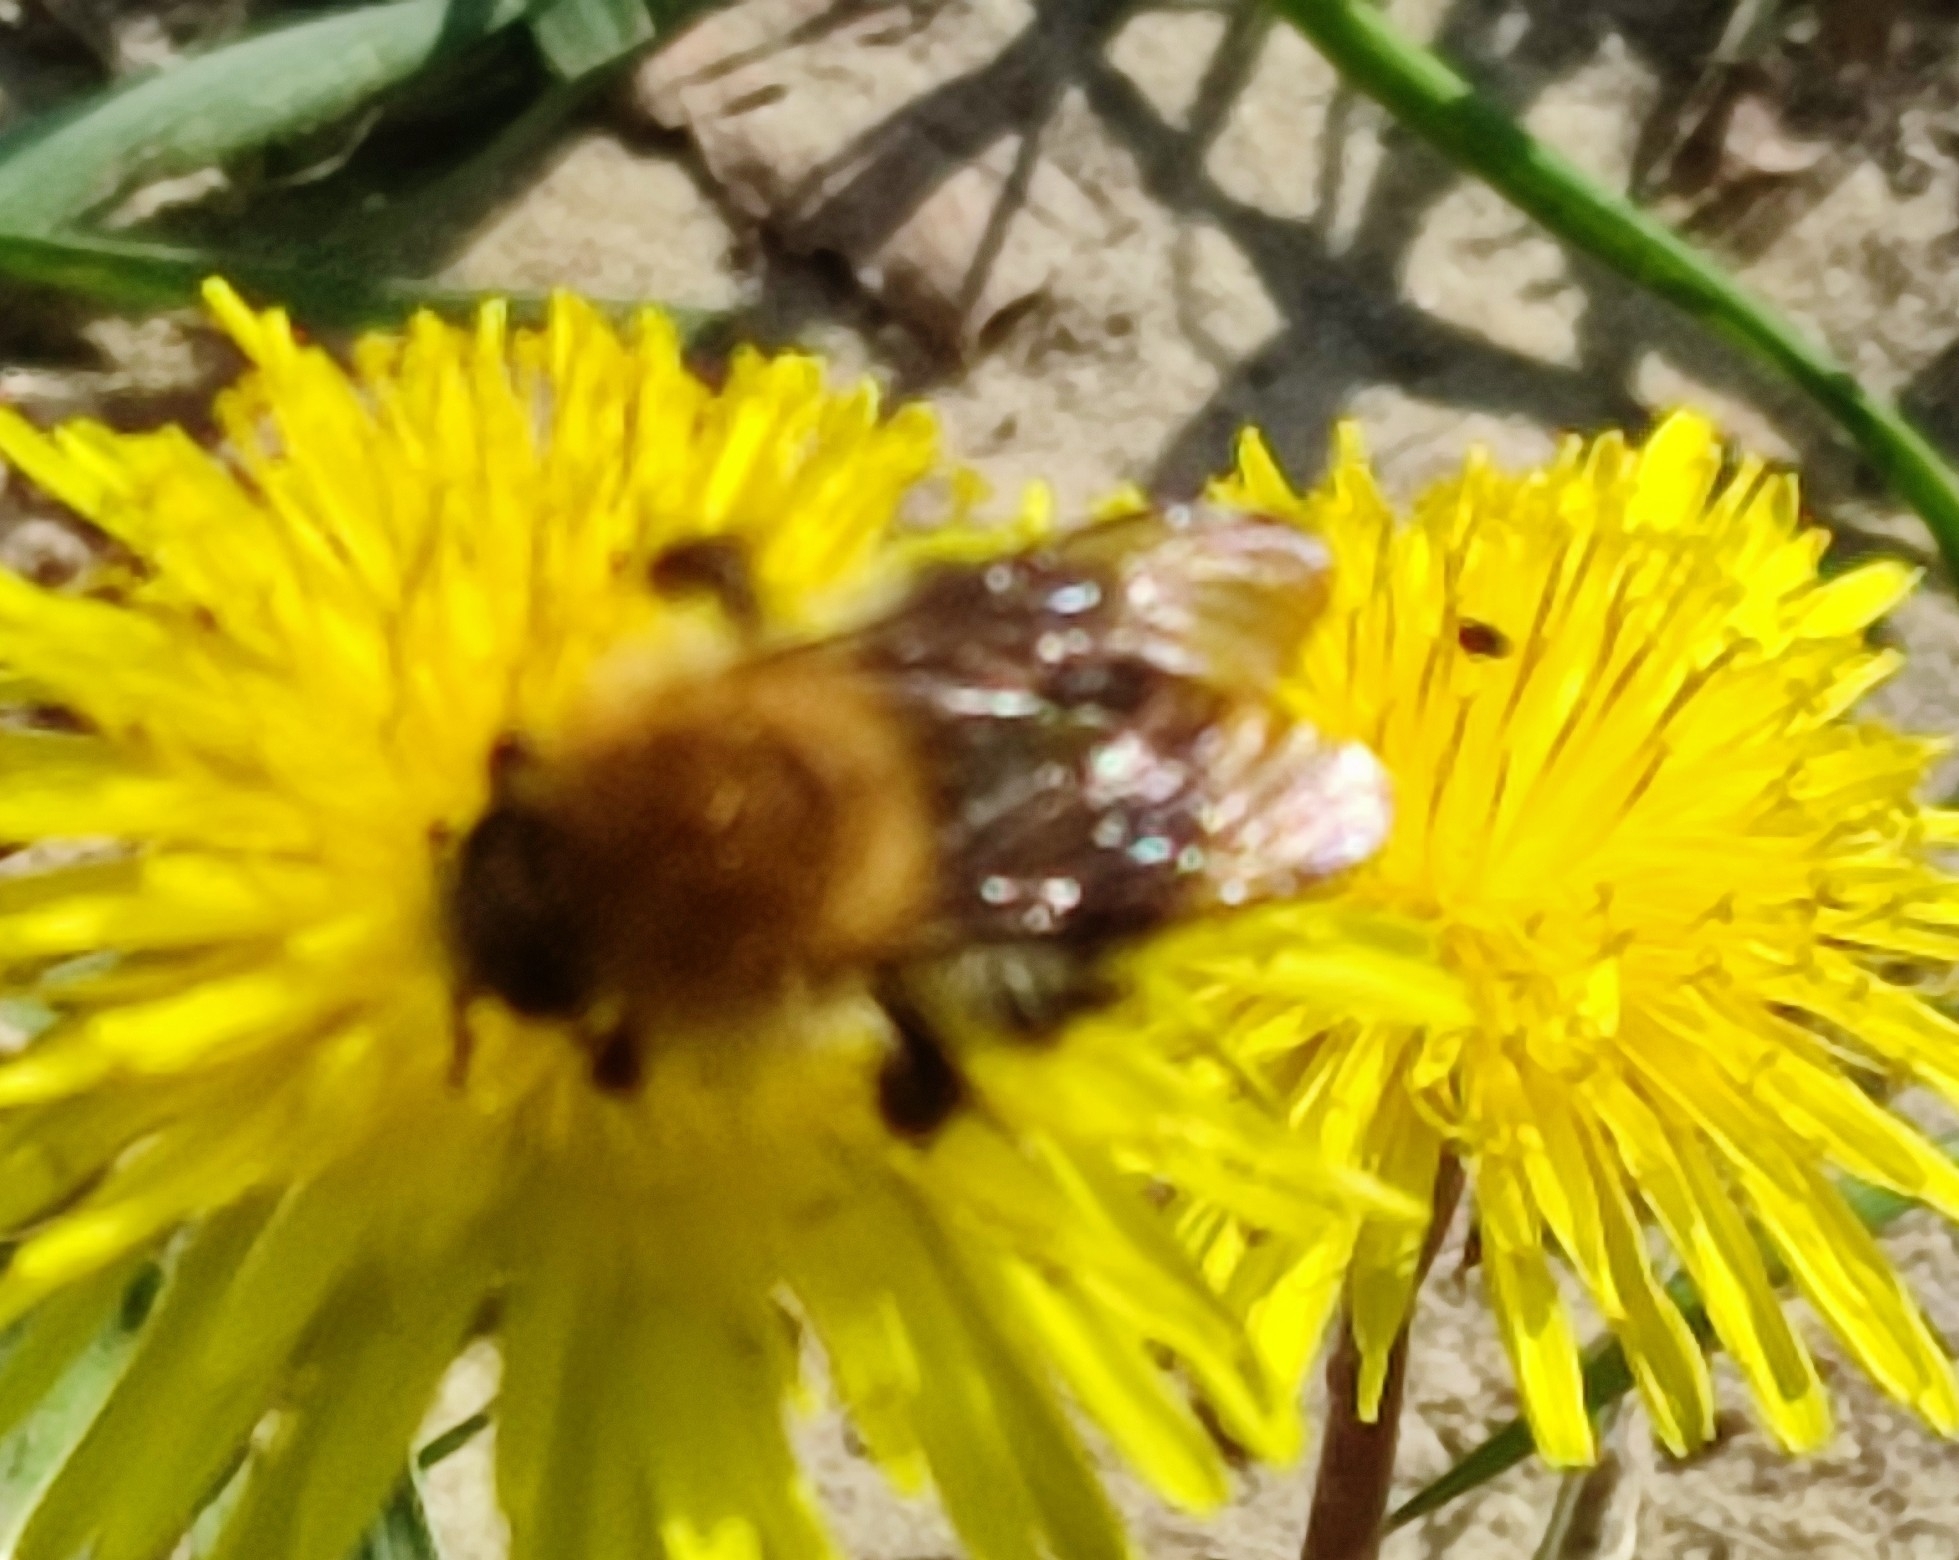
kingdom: Animalia
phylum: Arthropoda
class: Insecta
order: Hymenoptera
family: Apidae
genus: Bombus
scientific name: Bombus pascuorum
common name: Common carder bee
